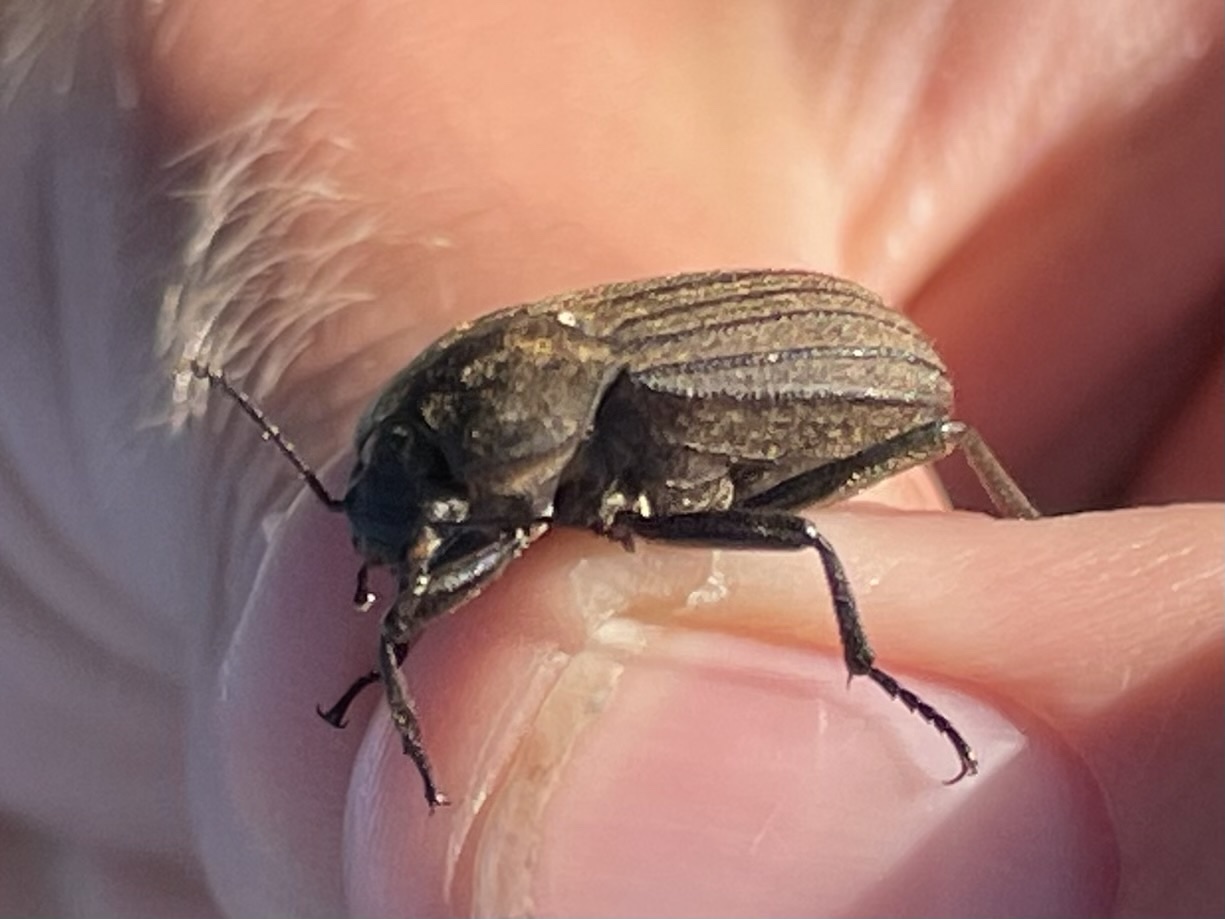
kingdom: Animalia
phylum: Arthropoda
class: Insecta
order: Coleoptera
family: Tenebrionidae
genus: Eleodes
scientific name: Eleodes tricostata
